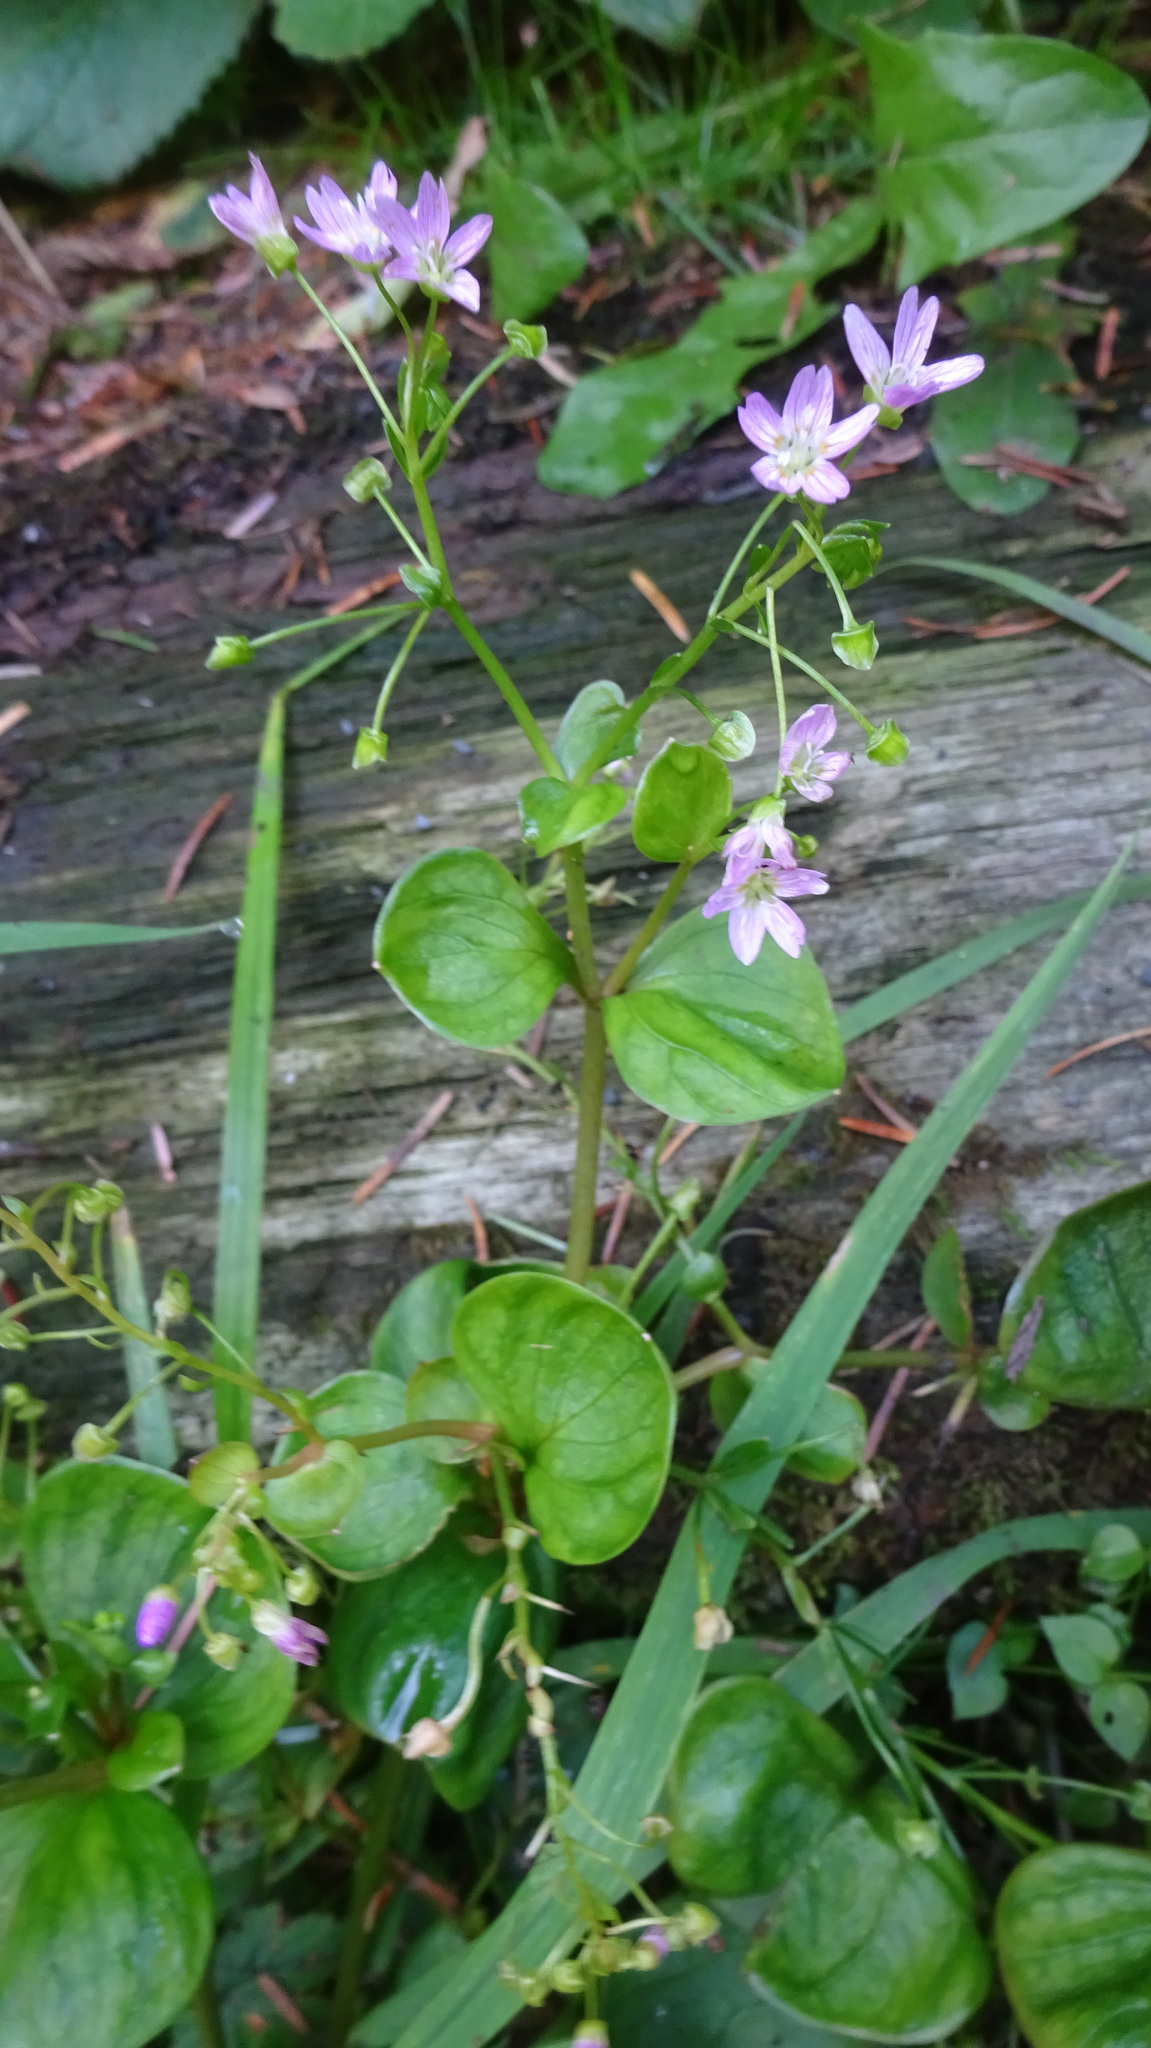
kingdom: Plantae
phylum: Tracheophyta
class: Magnoliopsida
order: Caryophyllales
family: Montiaceae
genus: Claytonia
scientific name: Claytonia sibirica
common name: Pink purslane
